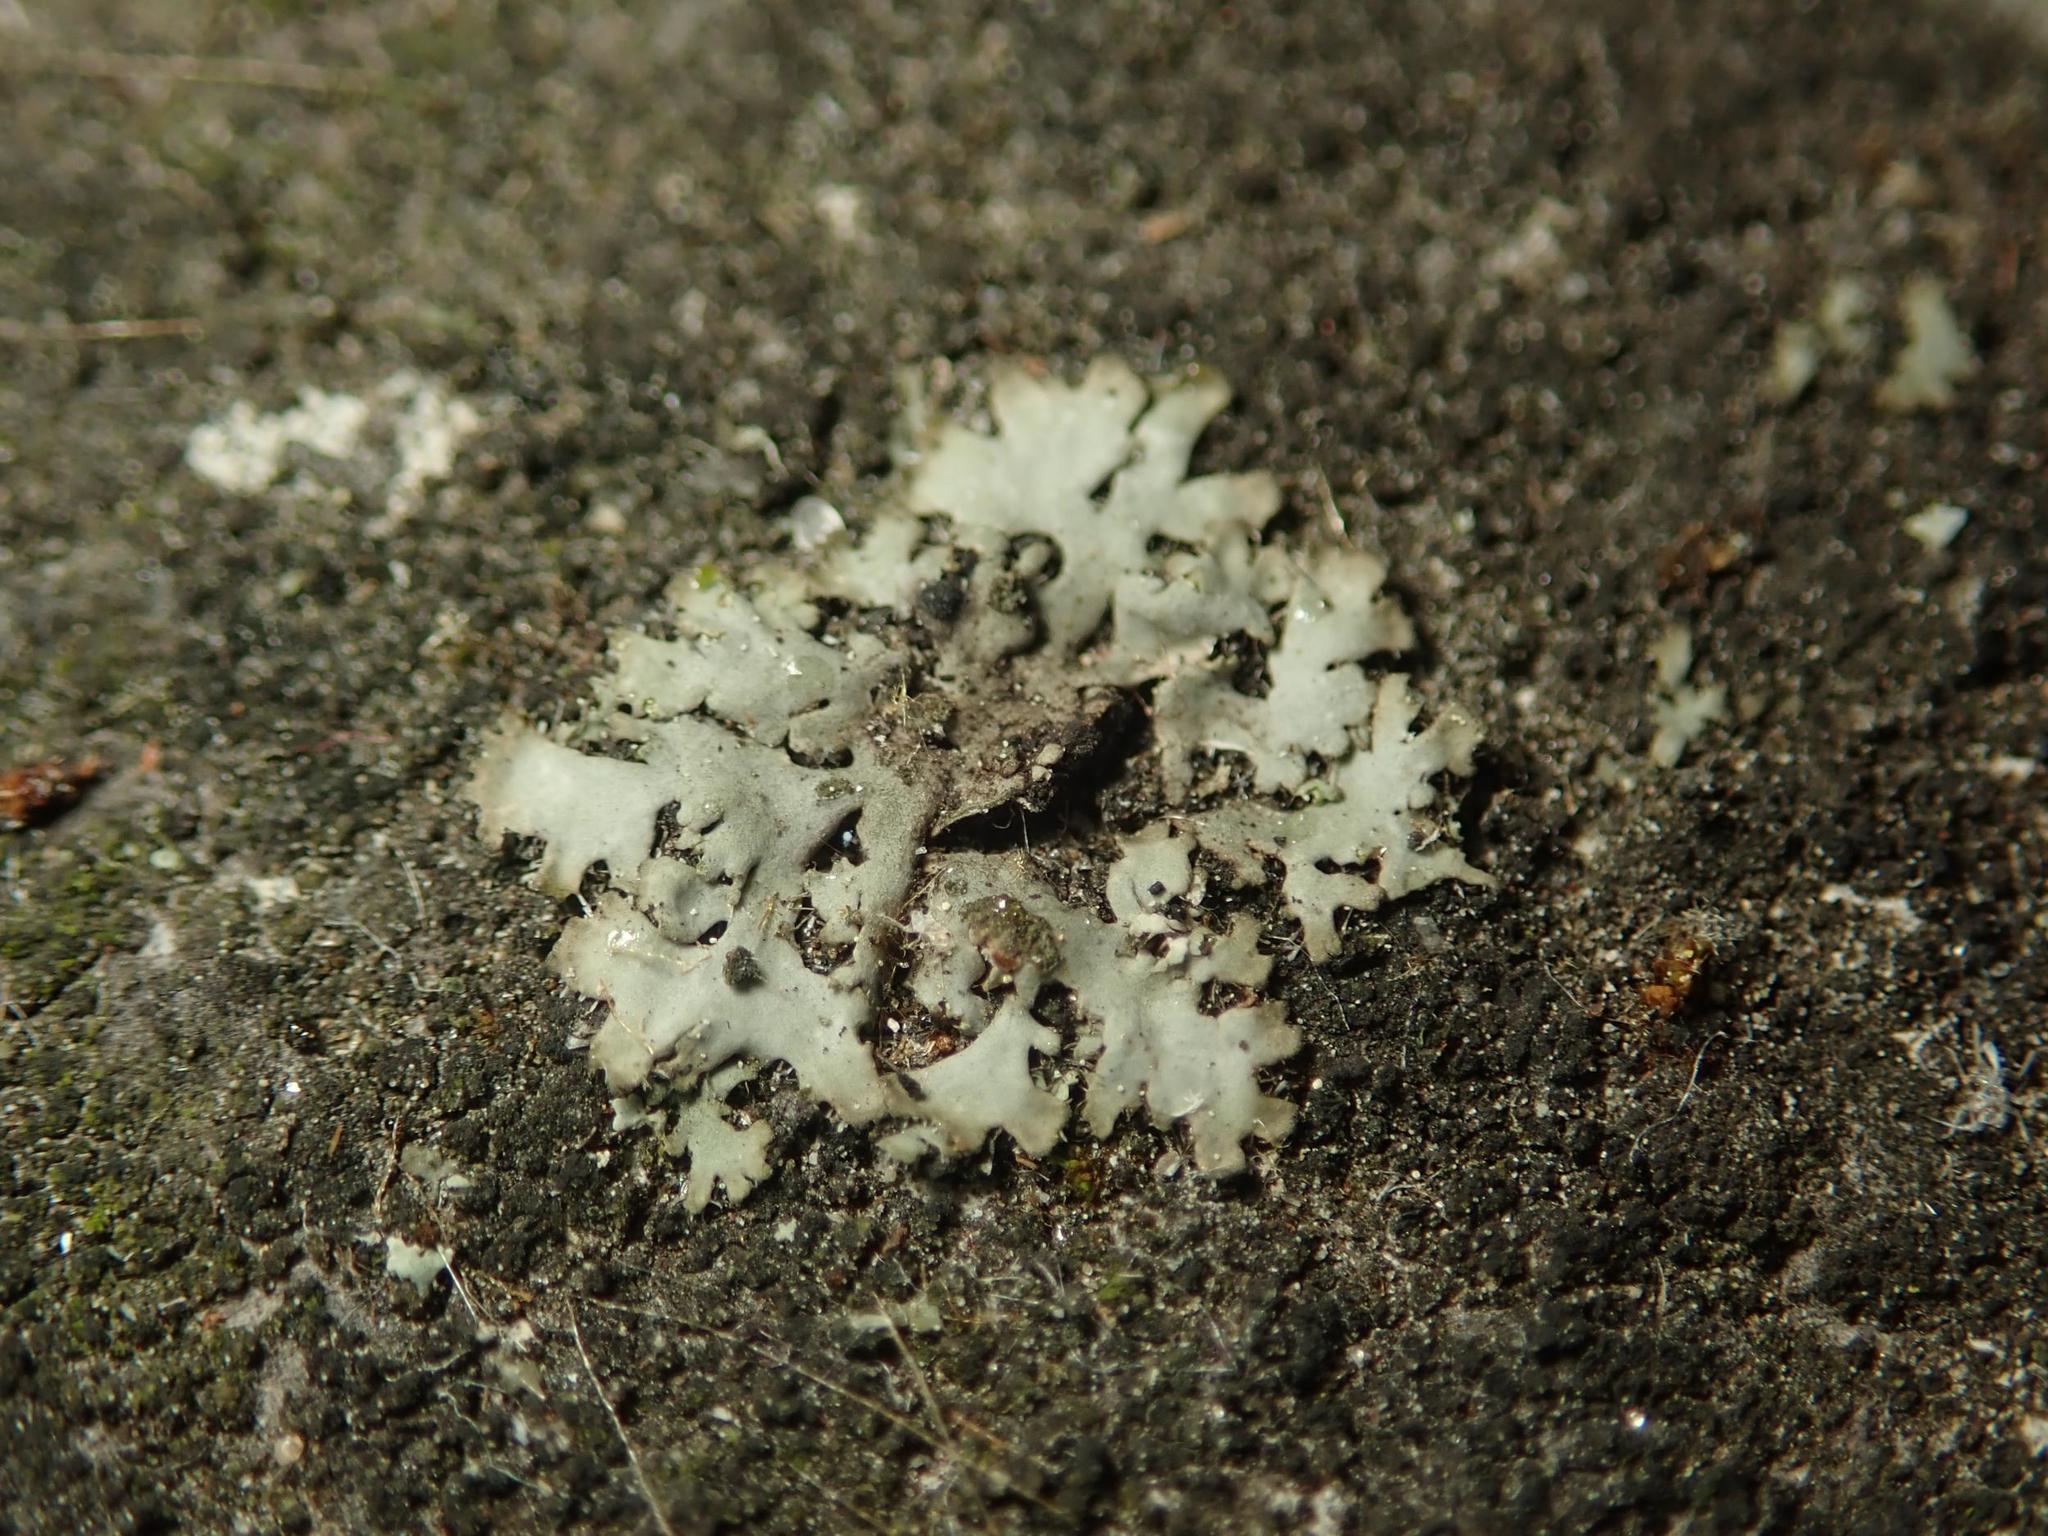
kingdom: Fungi
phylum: Ascomycota
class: Lecanoromycetes
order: Caliciales
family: Physciaceae
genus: Phaeophyscia
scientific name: Phaeophyscia orbicularis
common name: Mealy shadow lichen
